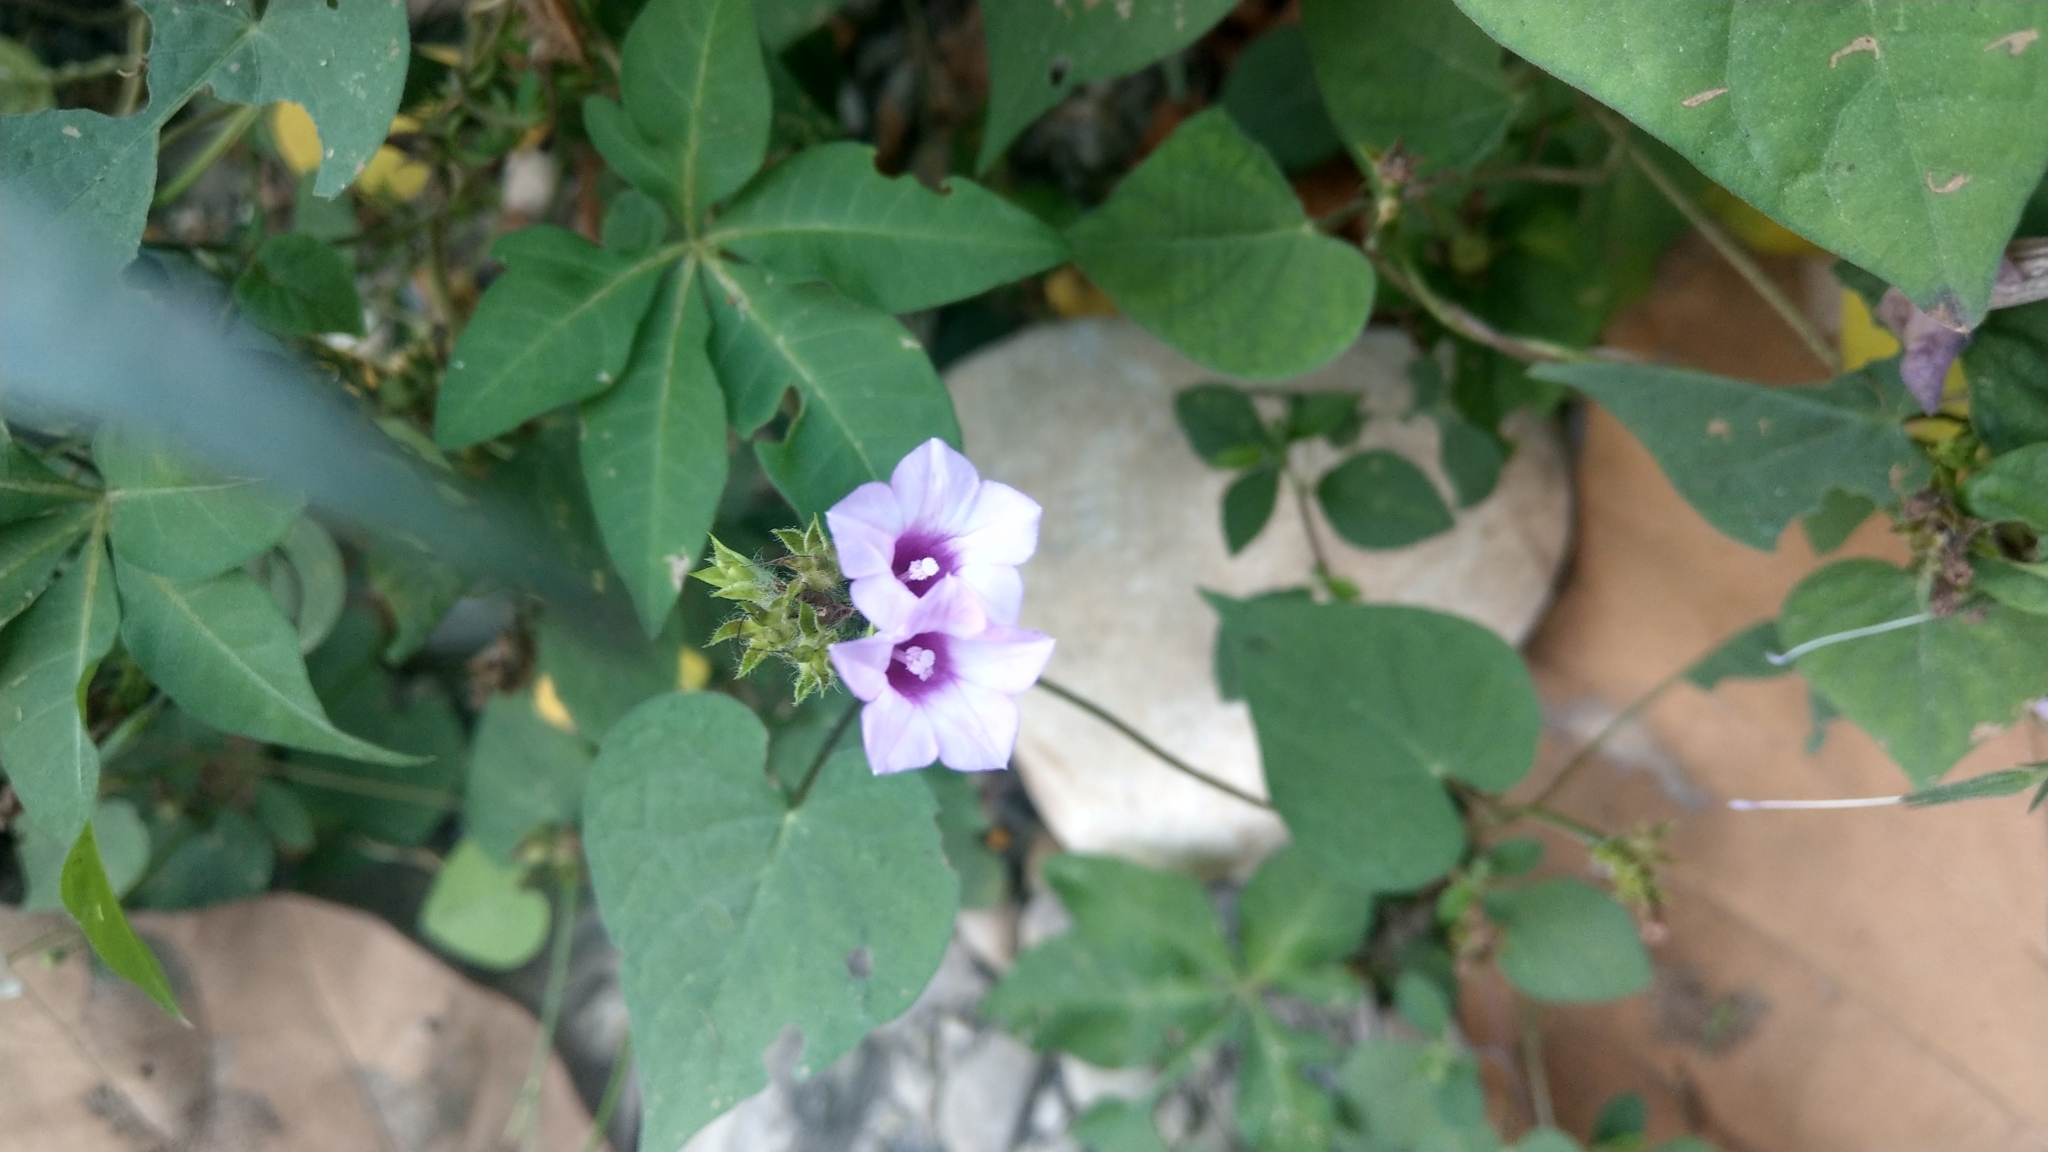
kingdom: Plantae
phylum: Tracheophyta
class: Magnoliopsida
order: Solanales
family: Convolvulaceae
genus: Ipomoea
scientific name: Ipomoea triloba
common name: Little-bell
